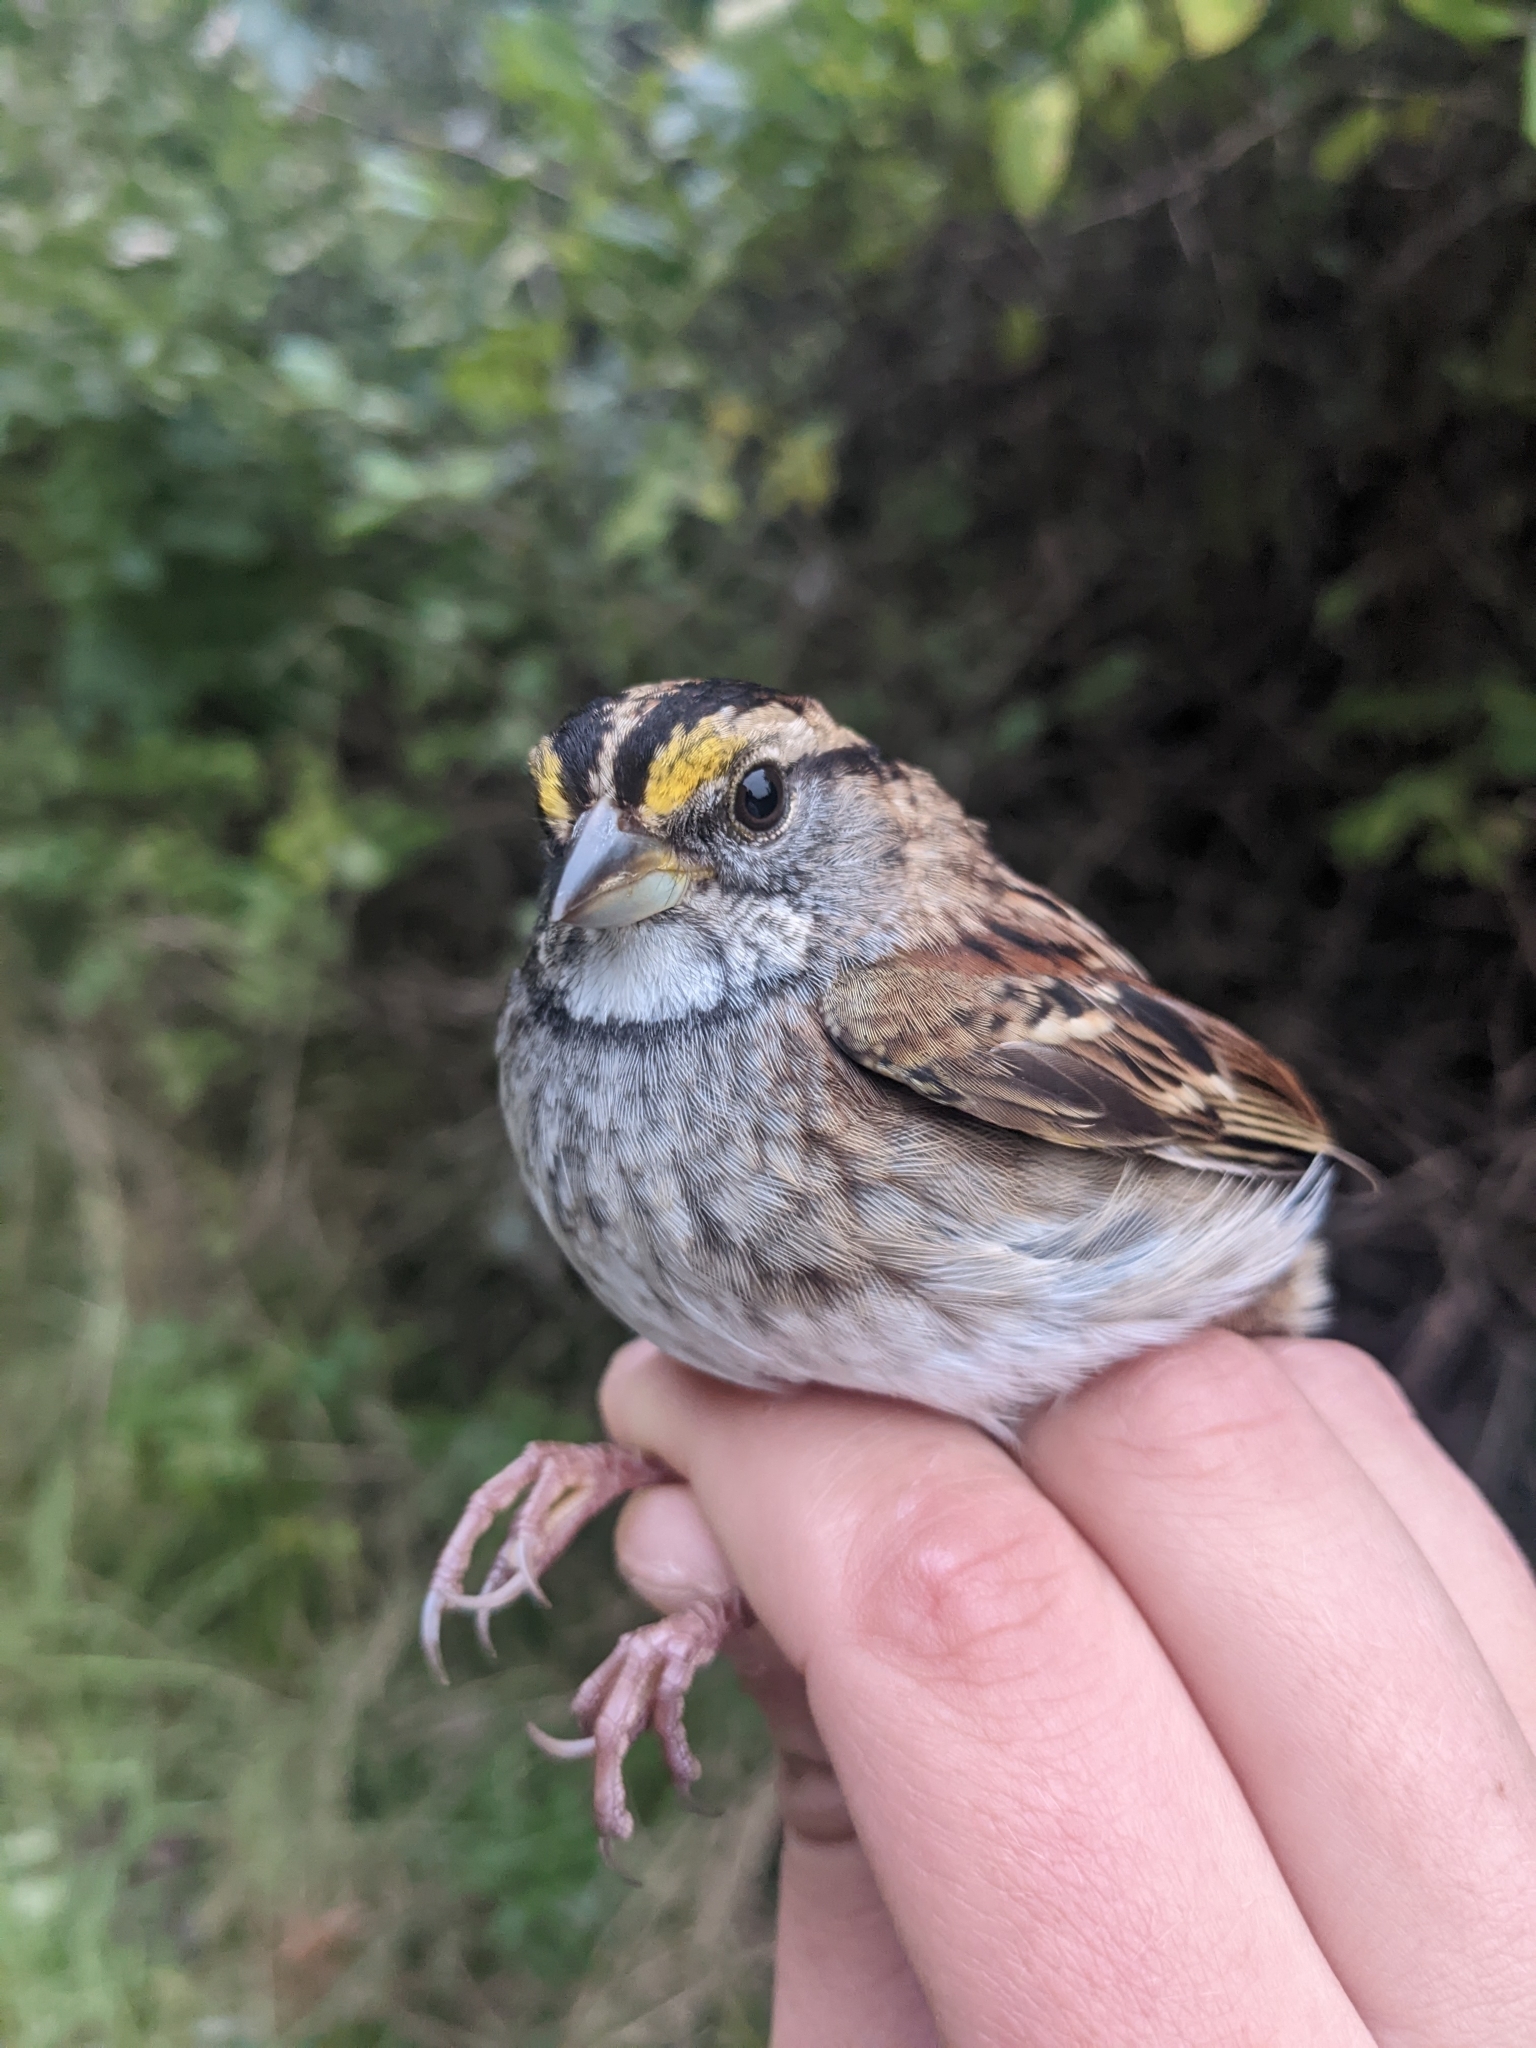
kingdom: Animalia
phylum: Chordata
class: Aves
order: Passeriformes
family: Passerellidae
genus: Zonotrichia
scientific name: Zonotrichia albicollis
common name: White-throated sparrow
